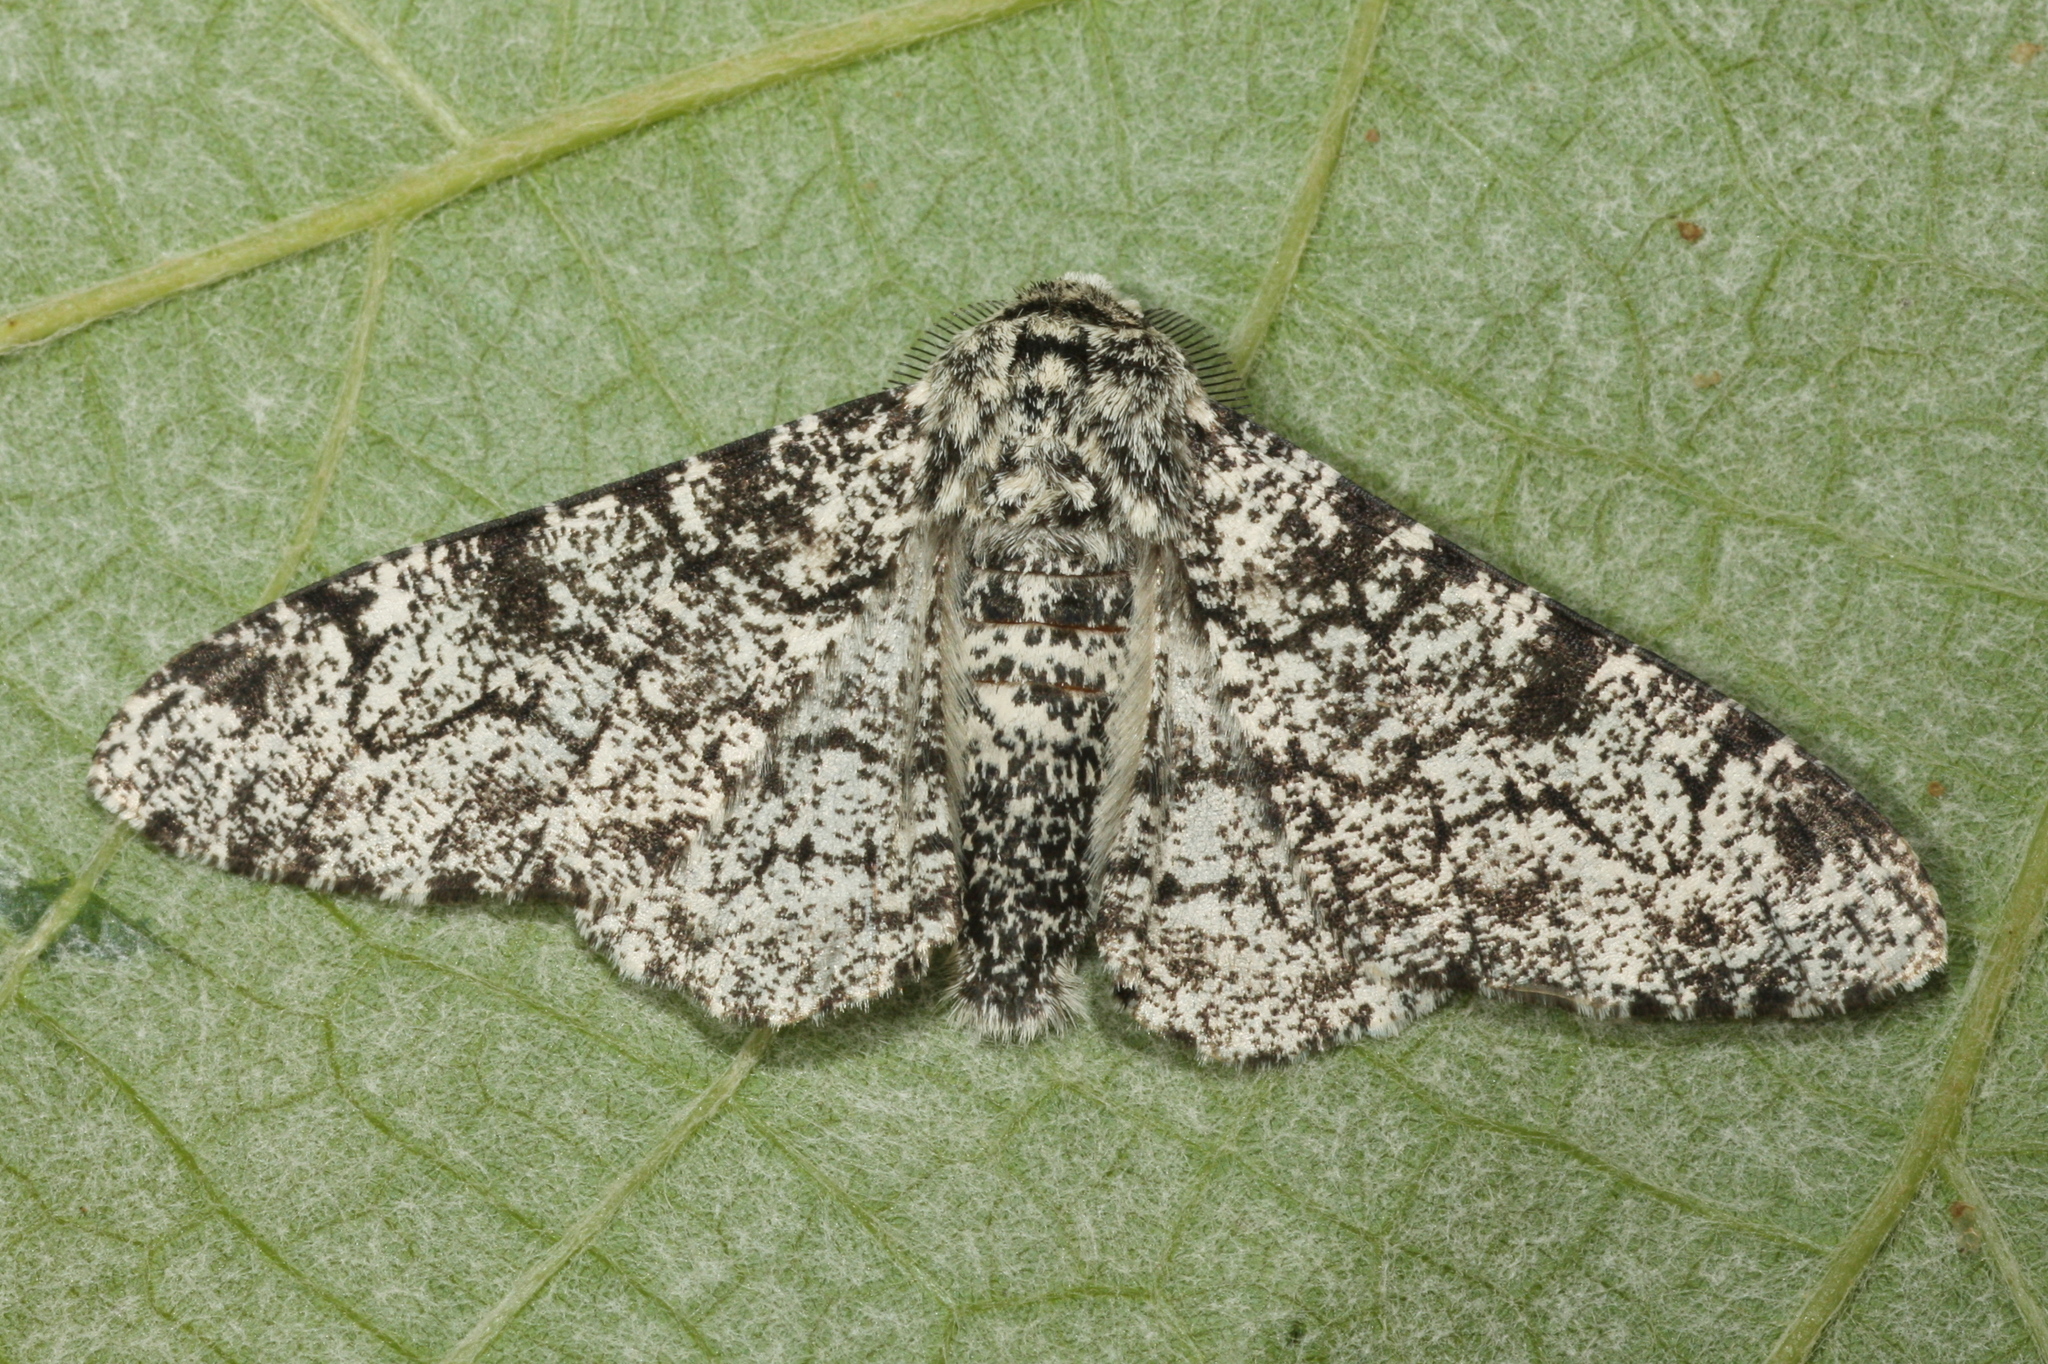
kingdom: Animalia
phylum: Arthropoda
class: Insecta
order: Lepidoptera
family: Geometridae
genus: Biston
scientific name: Biston betularia
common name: Peppered moth
